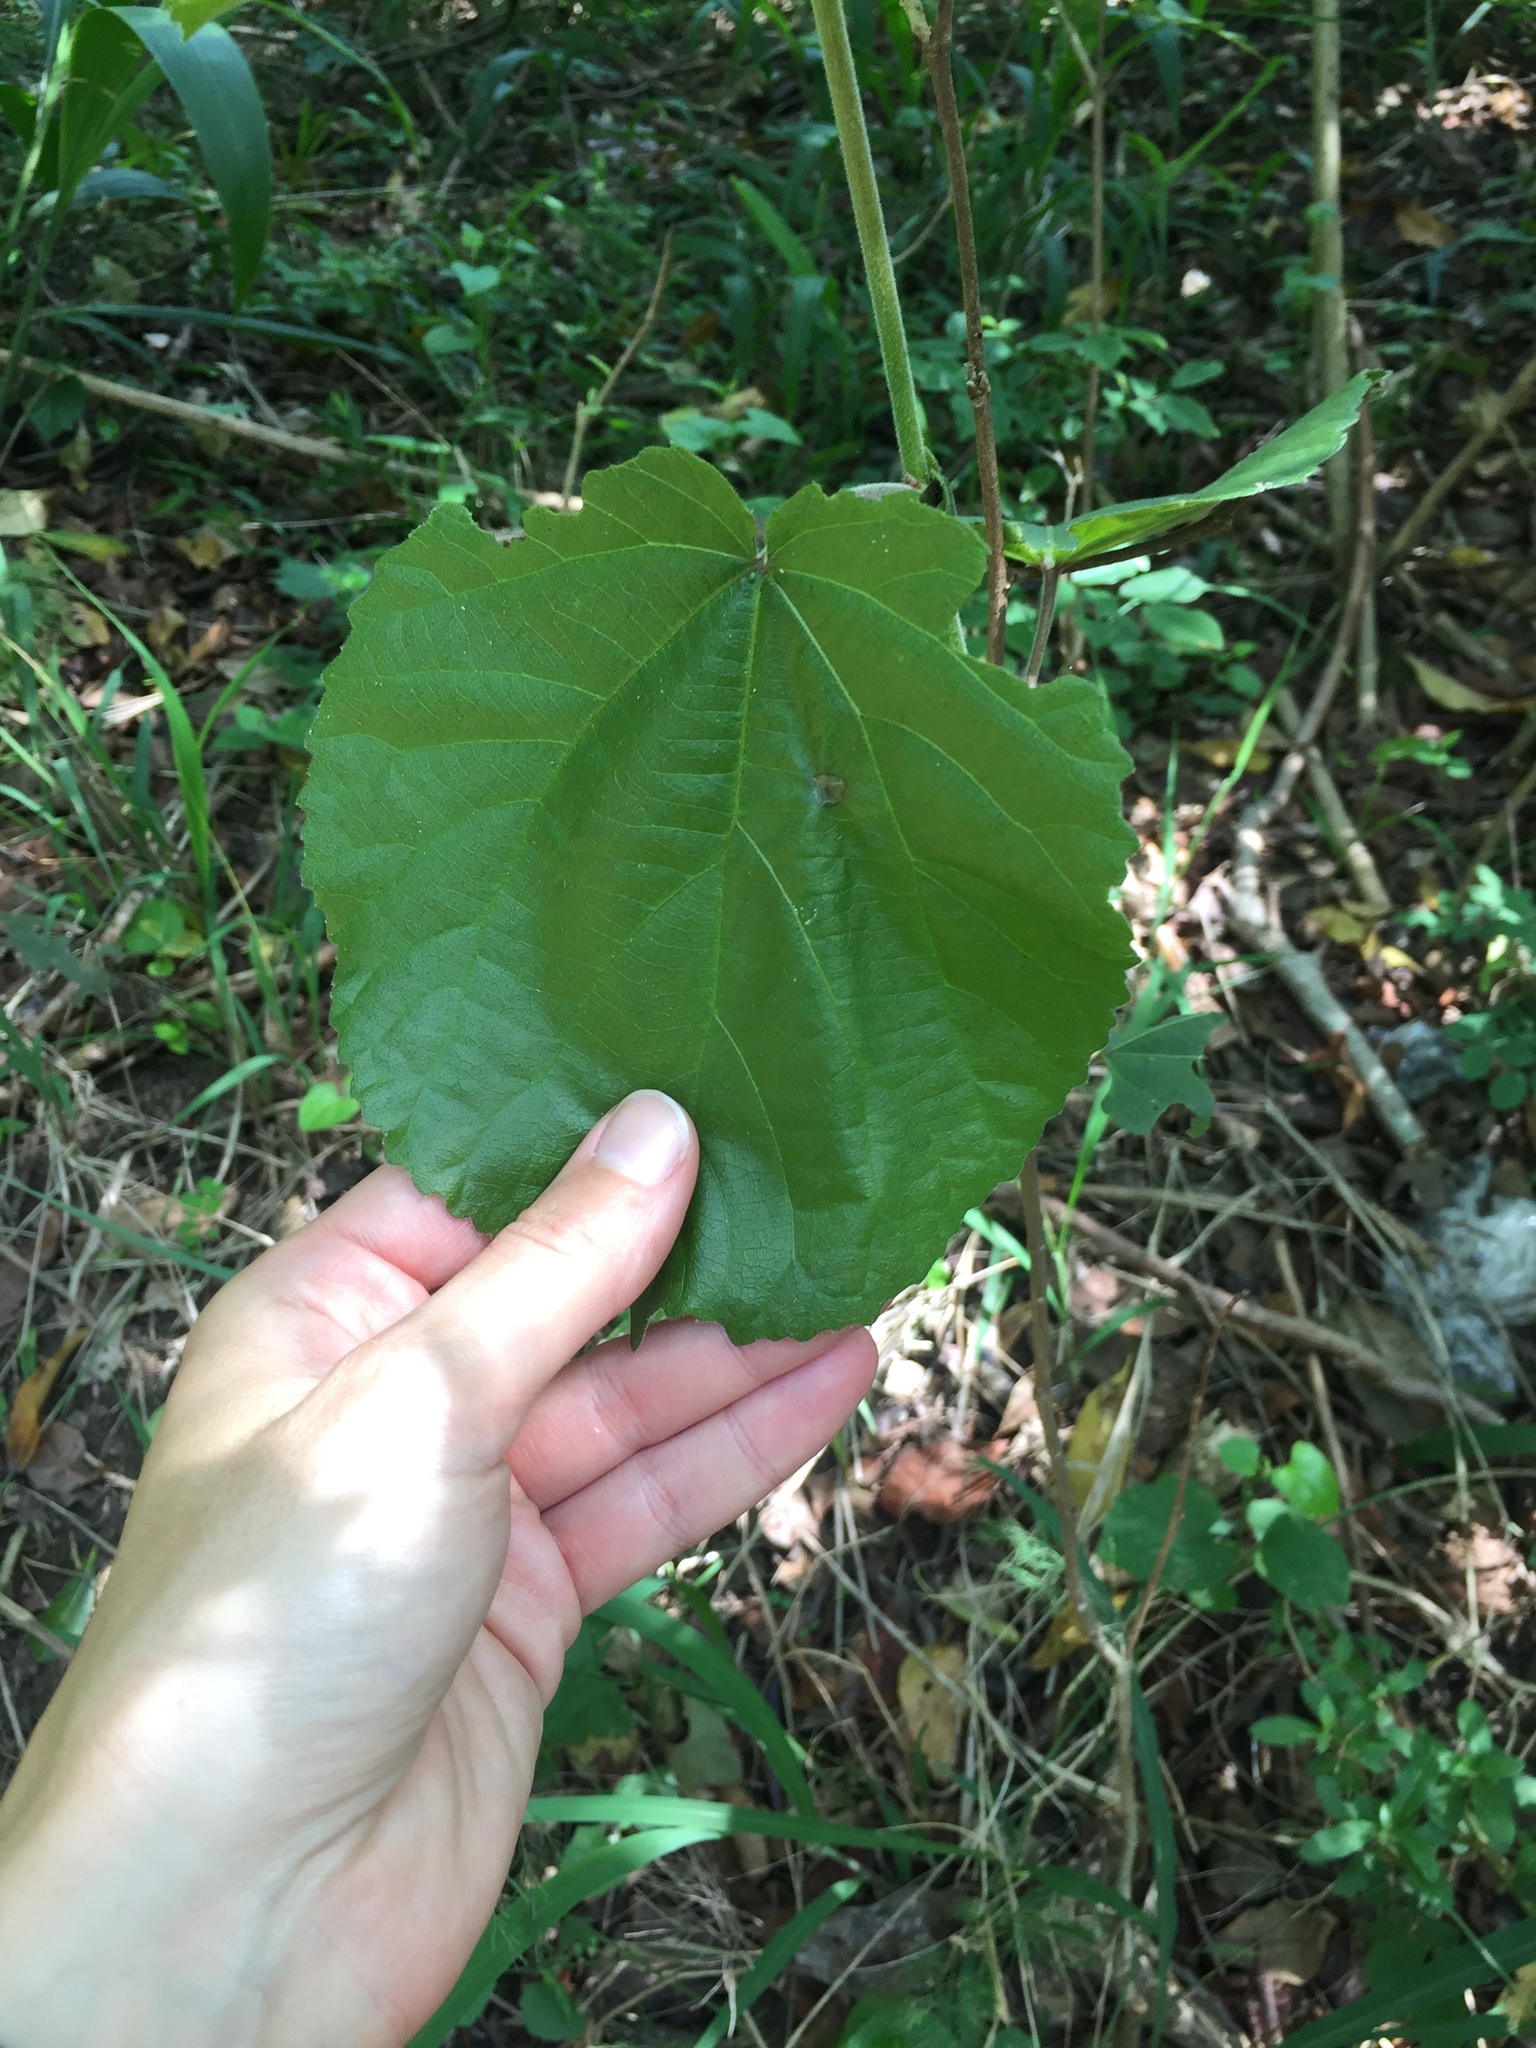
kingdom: Plantae
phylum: Tracheophyta
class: Magnoliopsida
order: Malpighiales
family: Salicaceae
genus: Trimeria
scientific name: Trimeria grandifolia
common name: Wild mulberry
